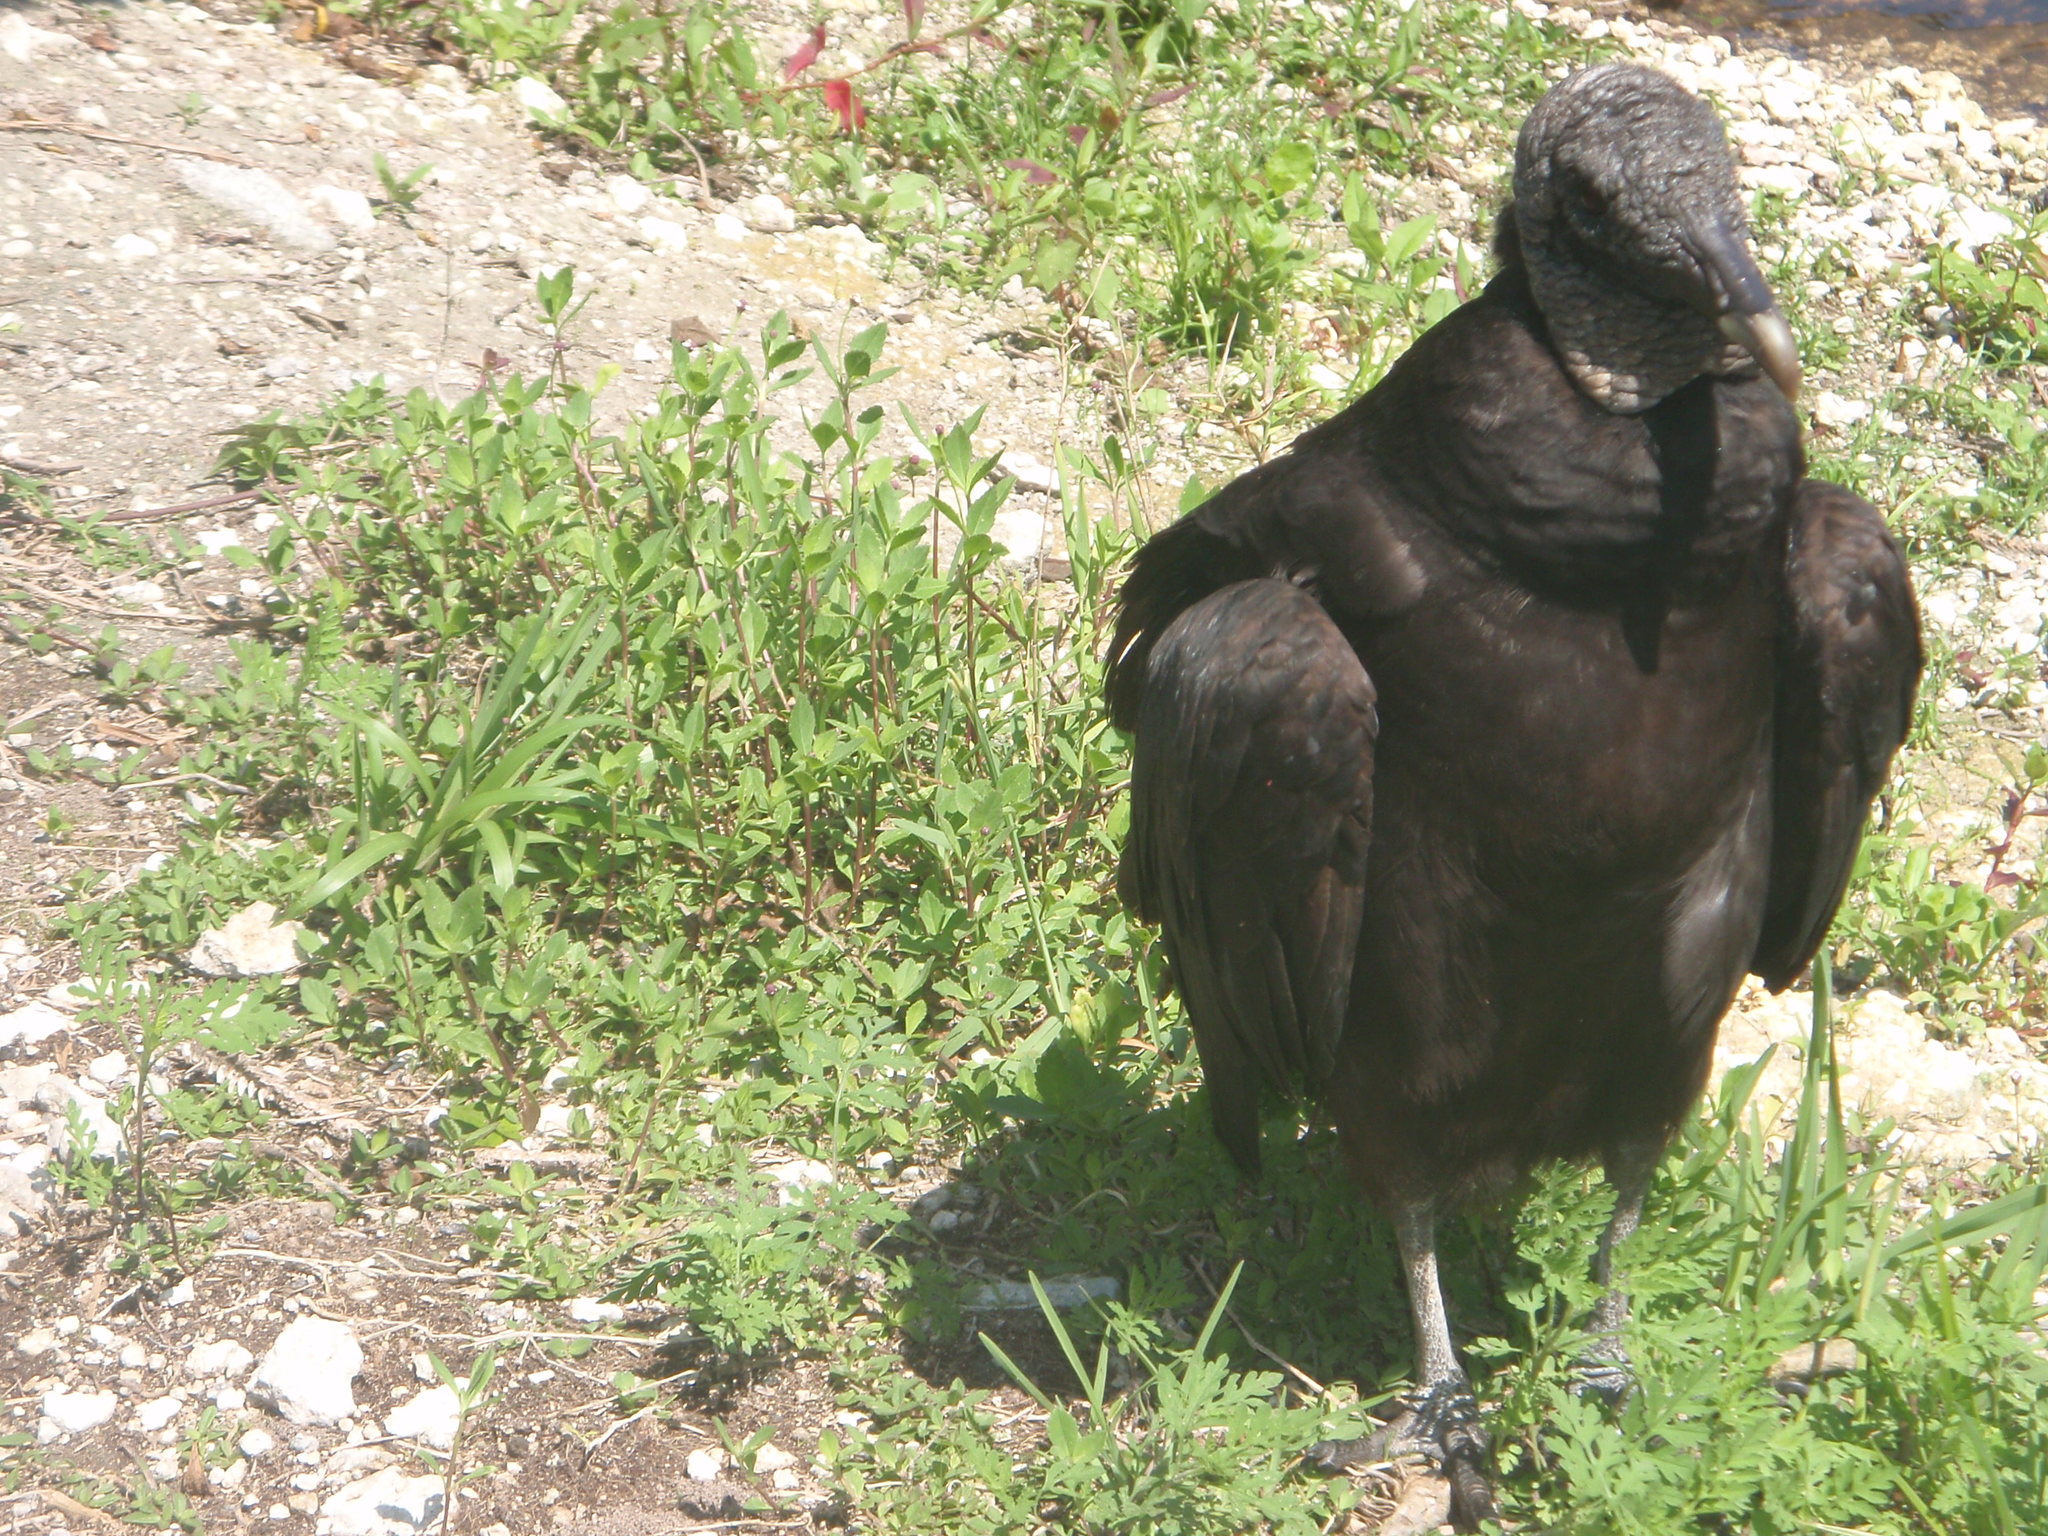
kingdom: Animalia
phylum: Chordata
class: Aves
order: Accipitriformes
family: Cathartidae
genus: Coragyps
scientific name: Coragyps atratus
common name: Black vulture
